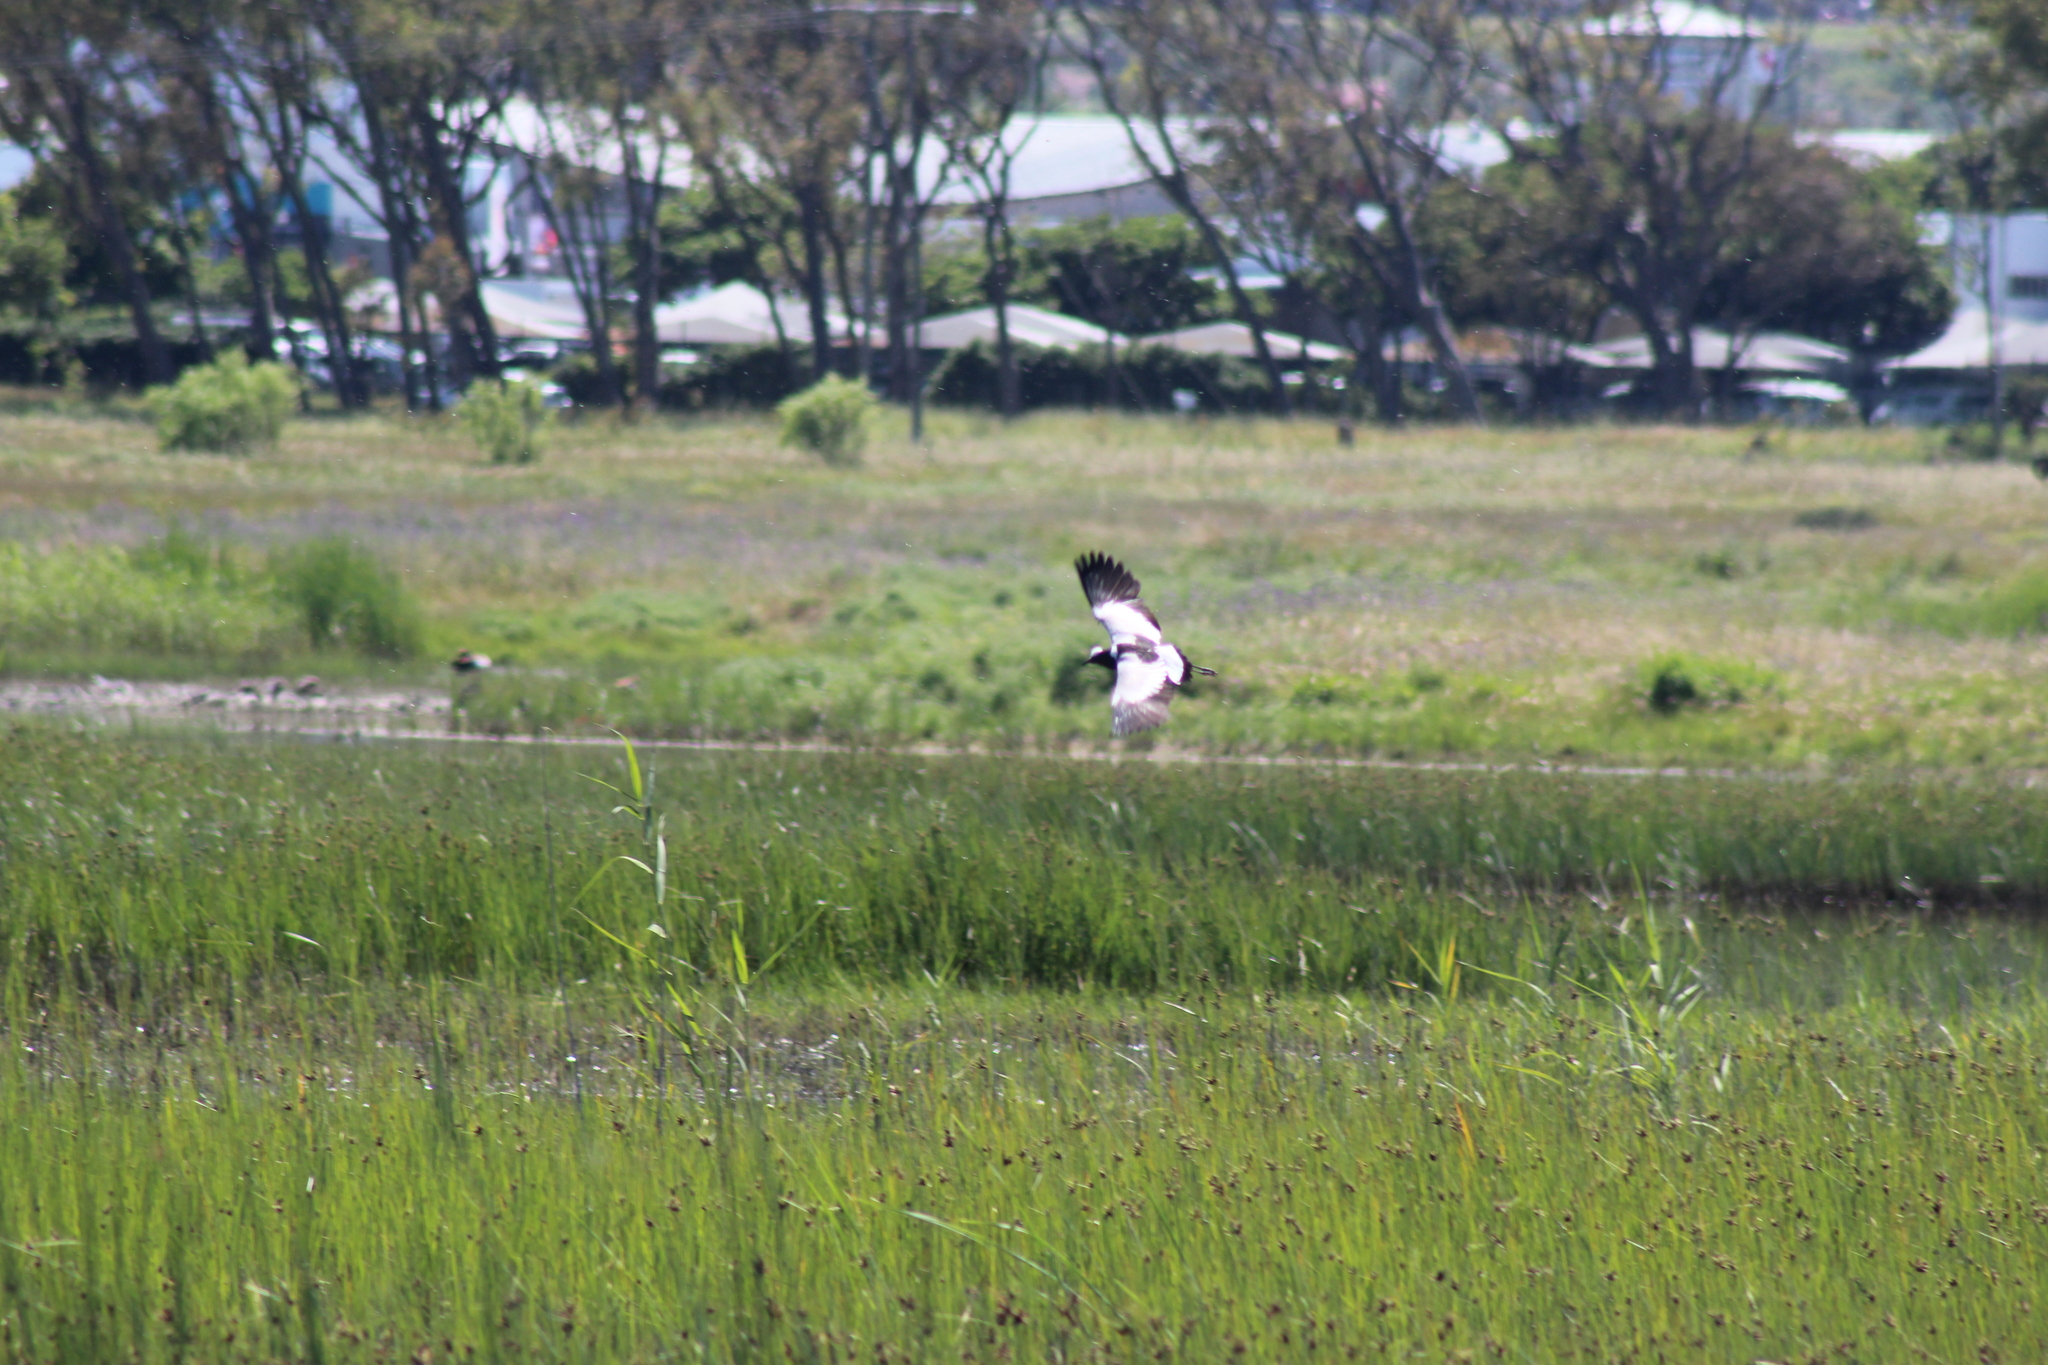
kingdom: Animalia
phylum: Chordata
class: Aves
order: Charadriiformes
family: Charadriidae
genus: Vanellus
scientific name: Vanellus armatus
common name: Blacksmith lapwing
